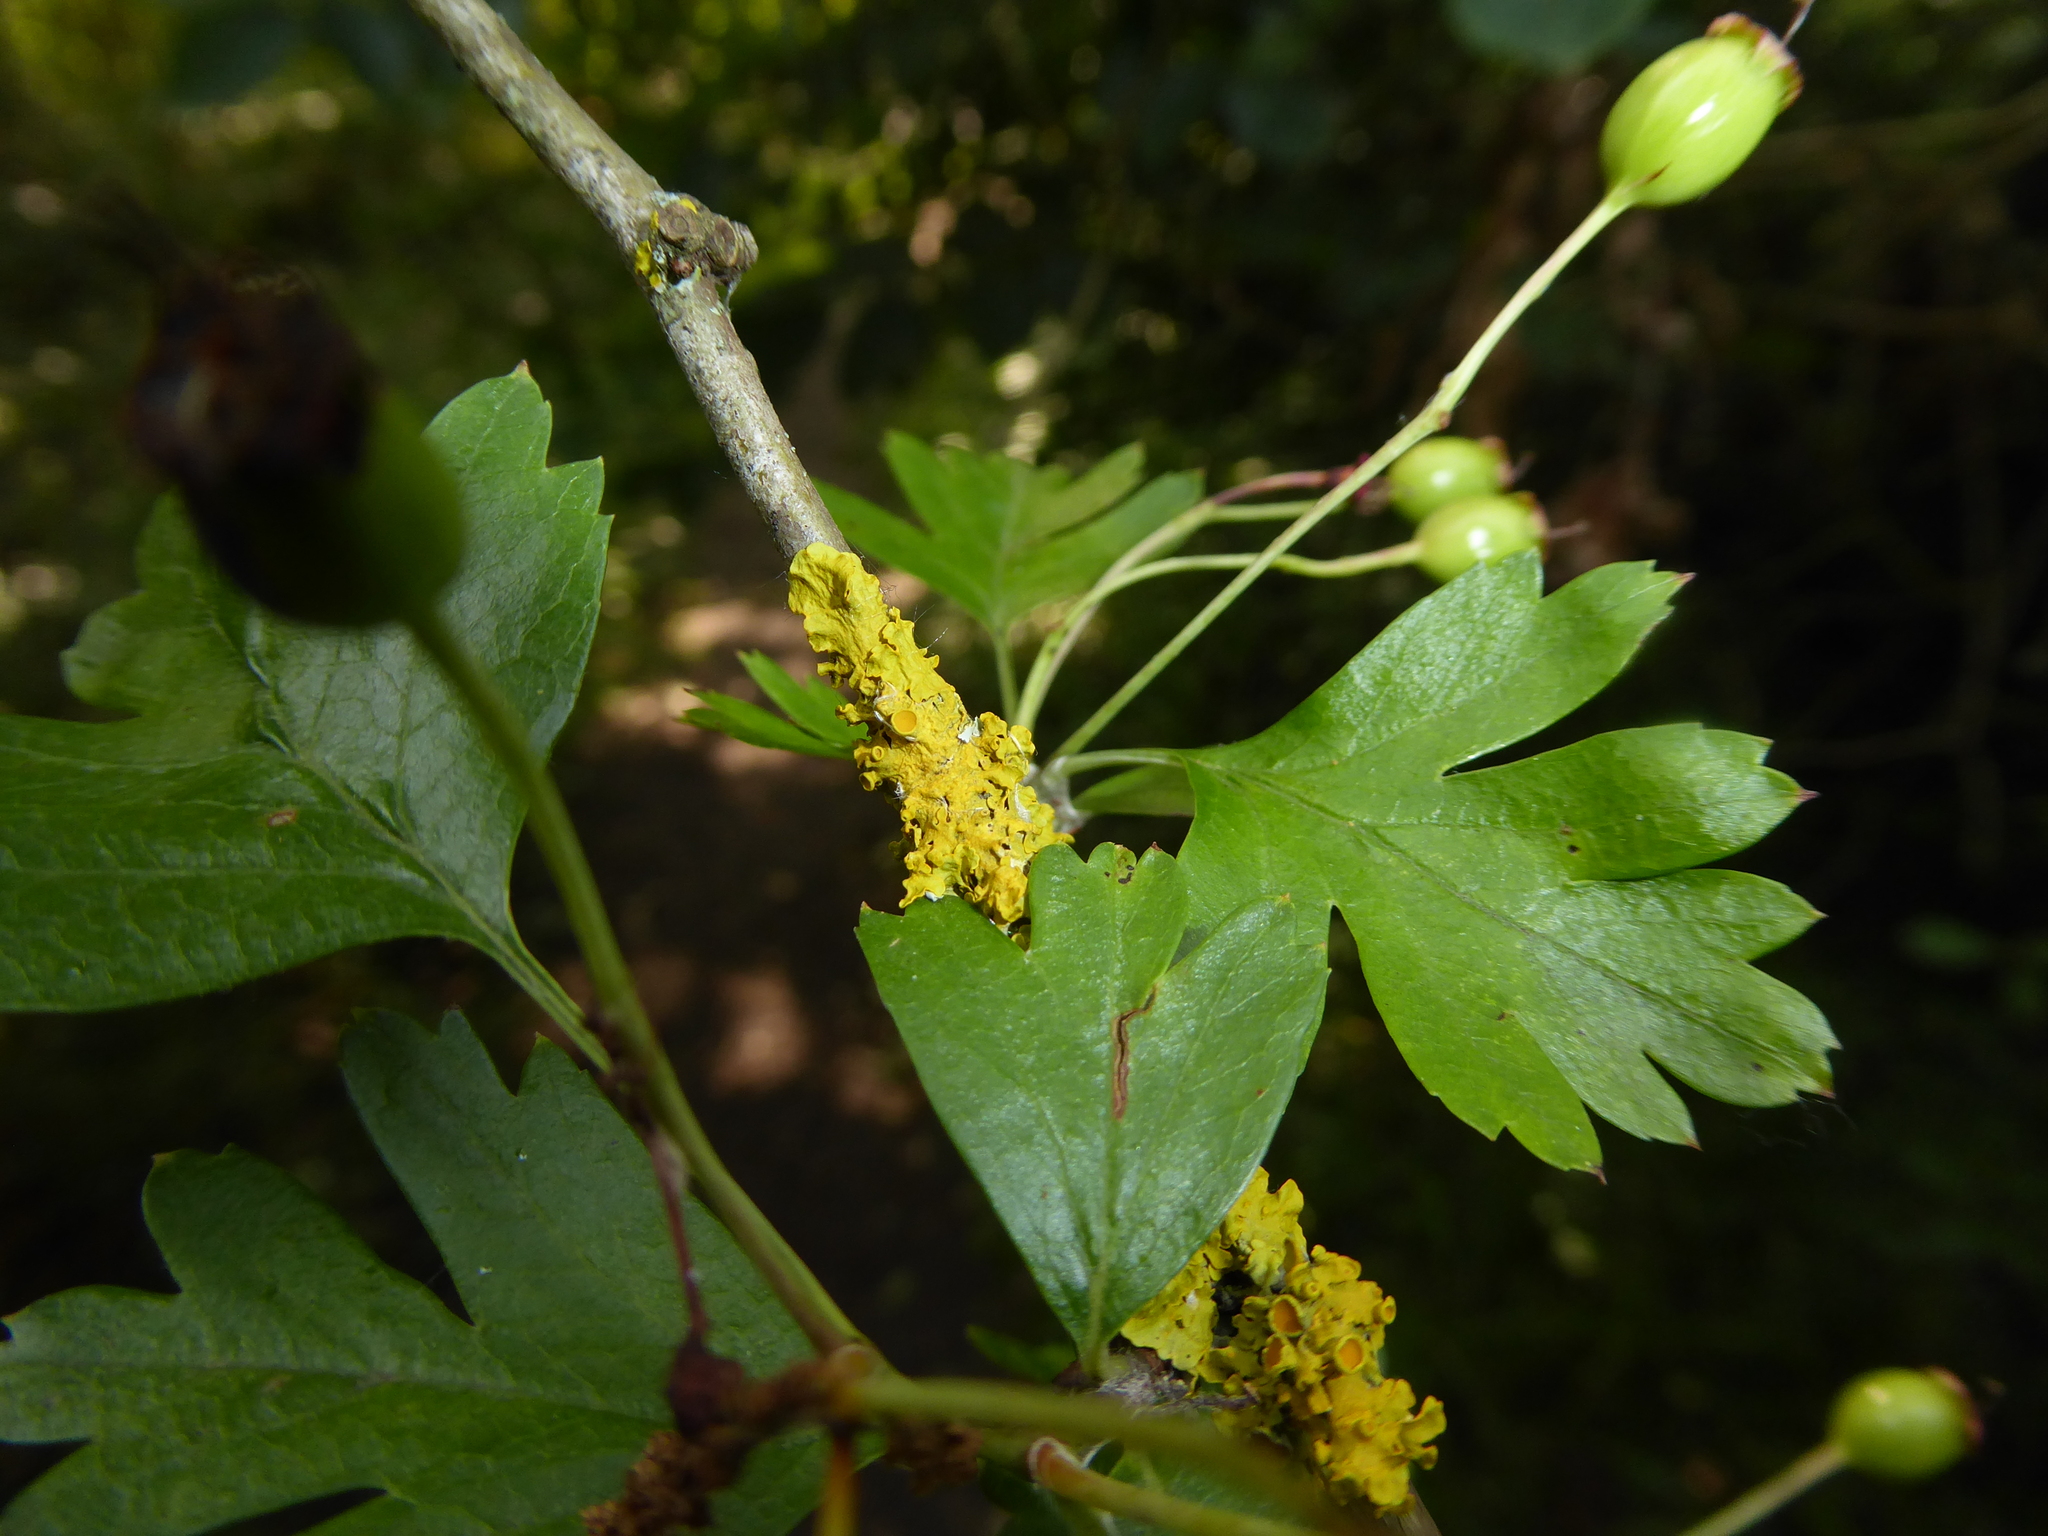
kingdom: Fungi
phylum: Ascomycota
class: Lecanoromycetes
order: Teloschistales
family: Teloschistaceae
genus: Xanthoria
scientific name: Xanthoria parietina
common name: Common orange lichen
